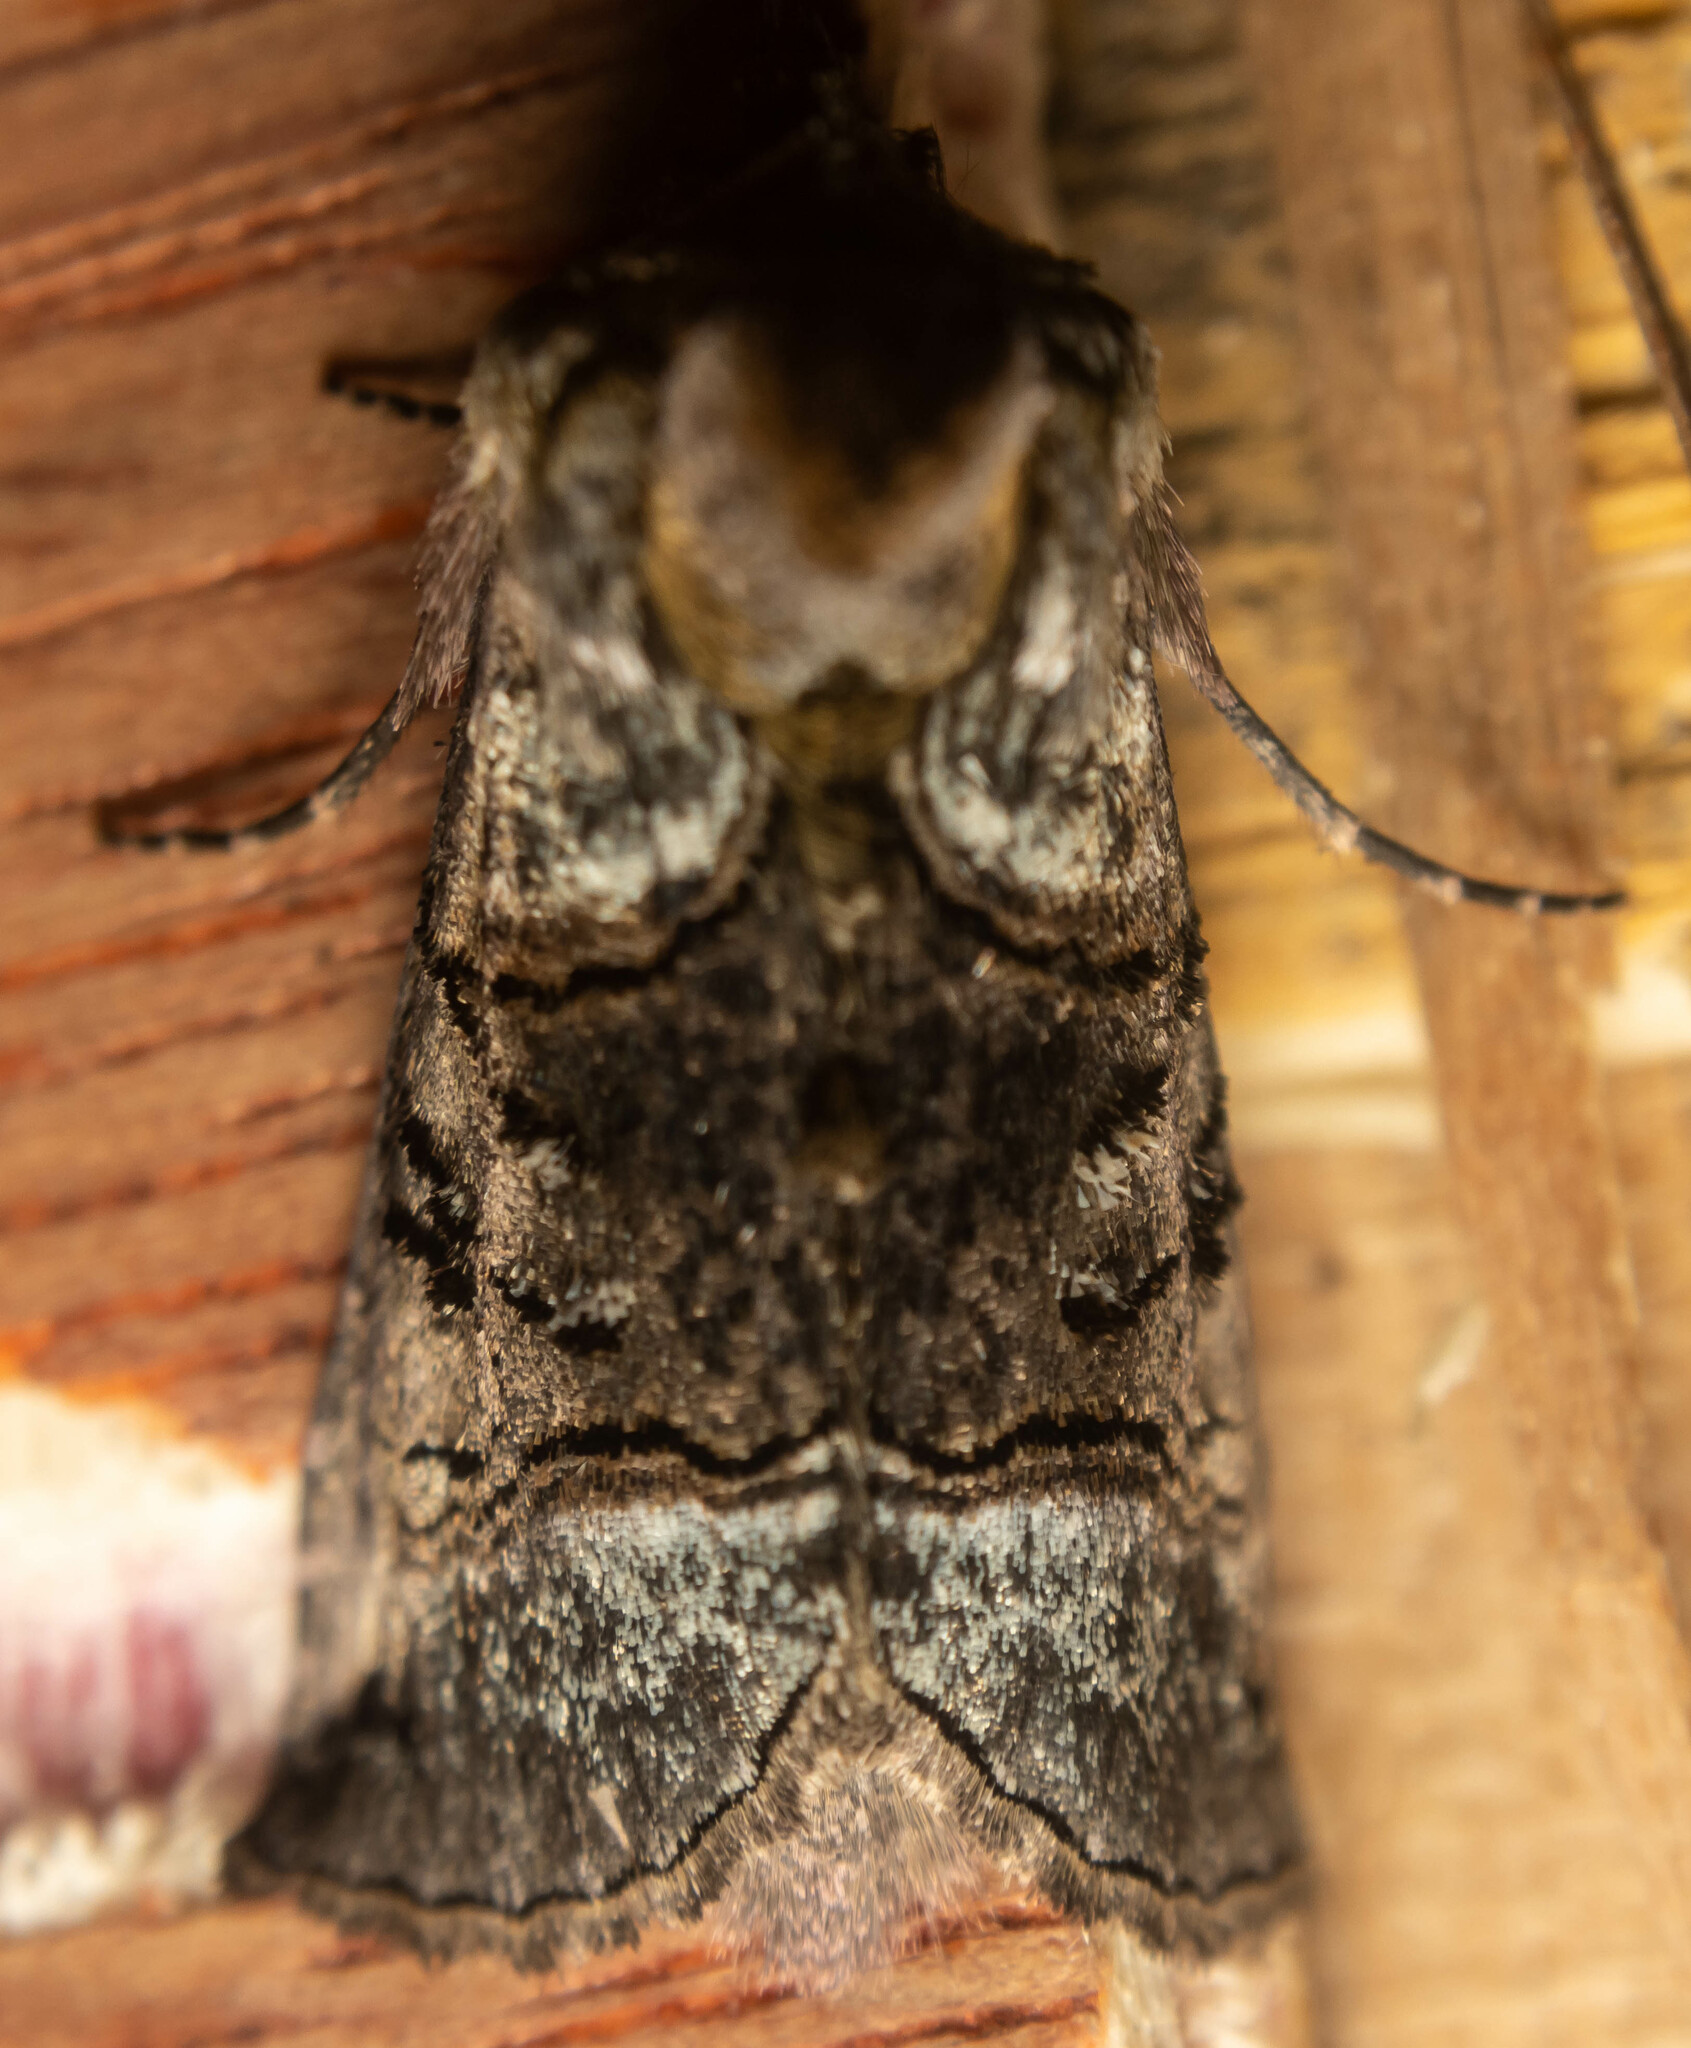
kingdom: Animalia
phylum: Arthropoda
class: Insecta
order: Lepidoptera
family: Noctuidae
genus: Abrostola
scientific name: Abrostola tripartita
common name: Spectacle
